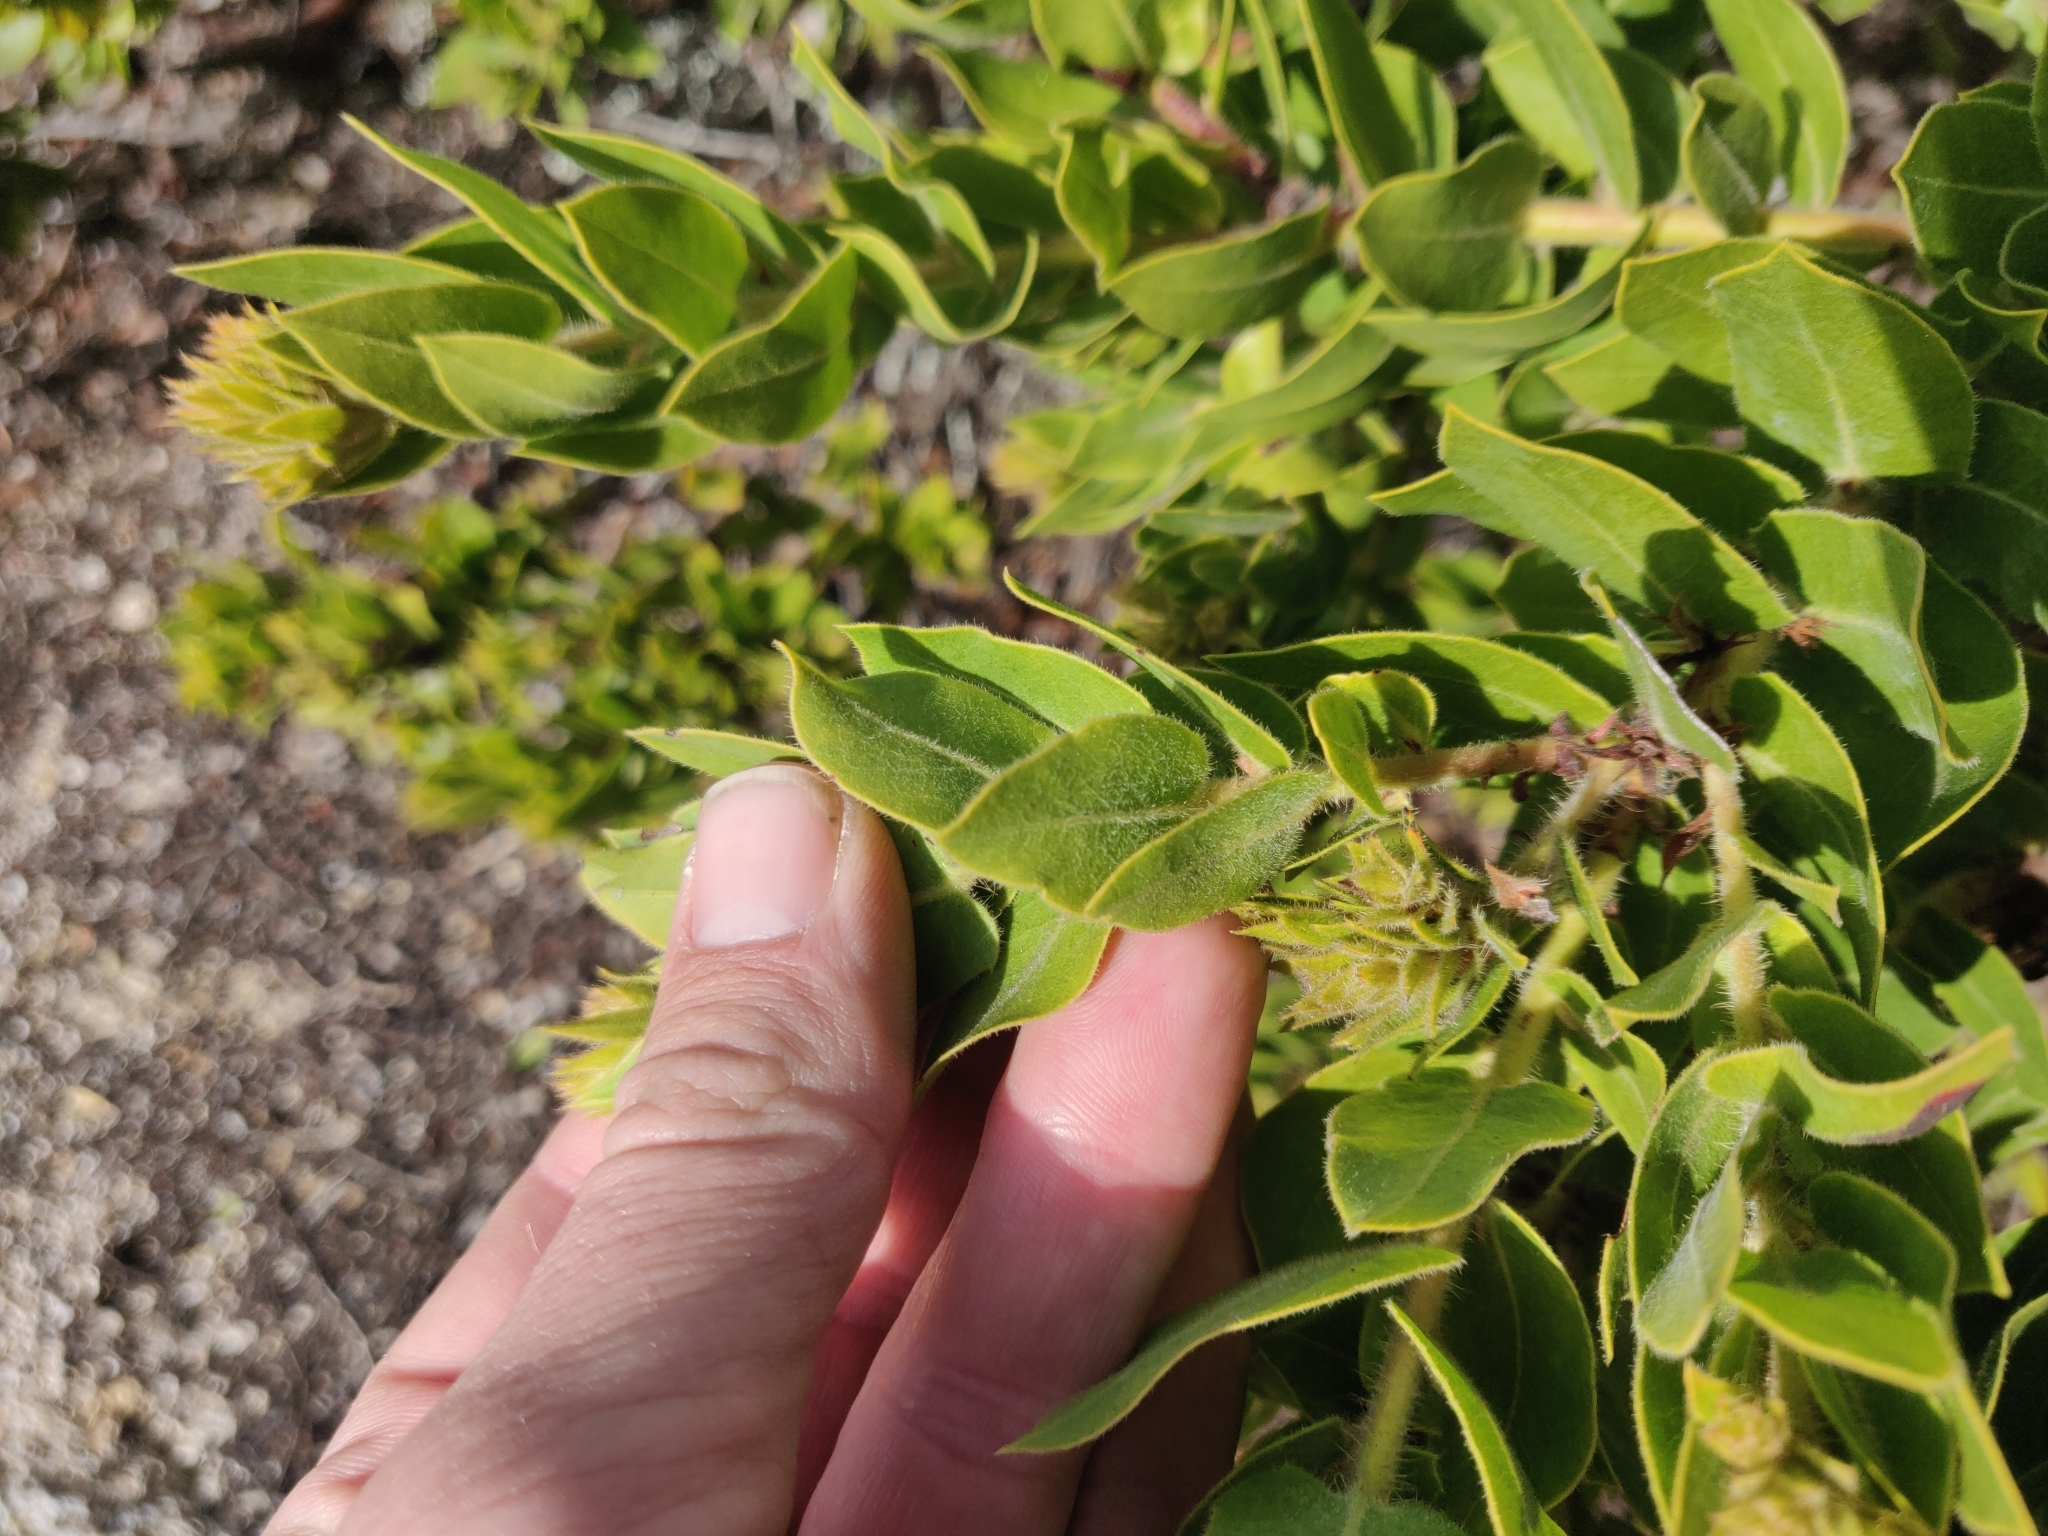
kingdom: Plantae
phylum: Tracheophyta
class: Magnoliopsida
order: Ericales
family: Ericaceae
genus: Arctostaphylos
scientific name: Arctostaphylos montaraensis
